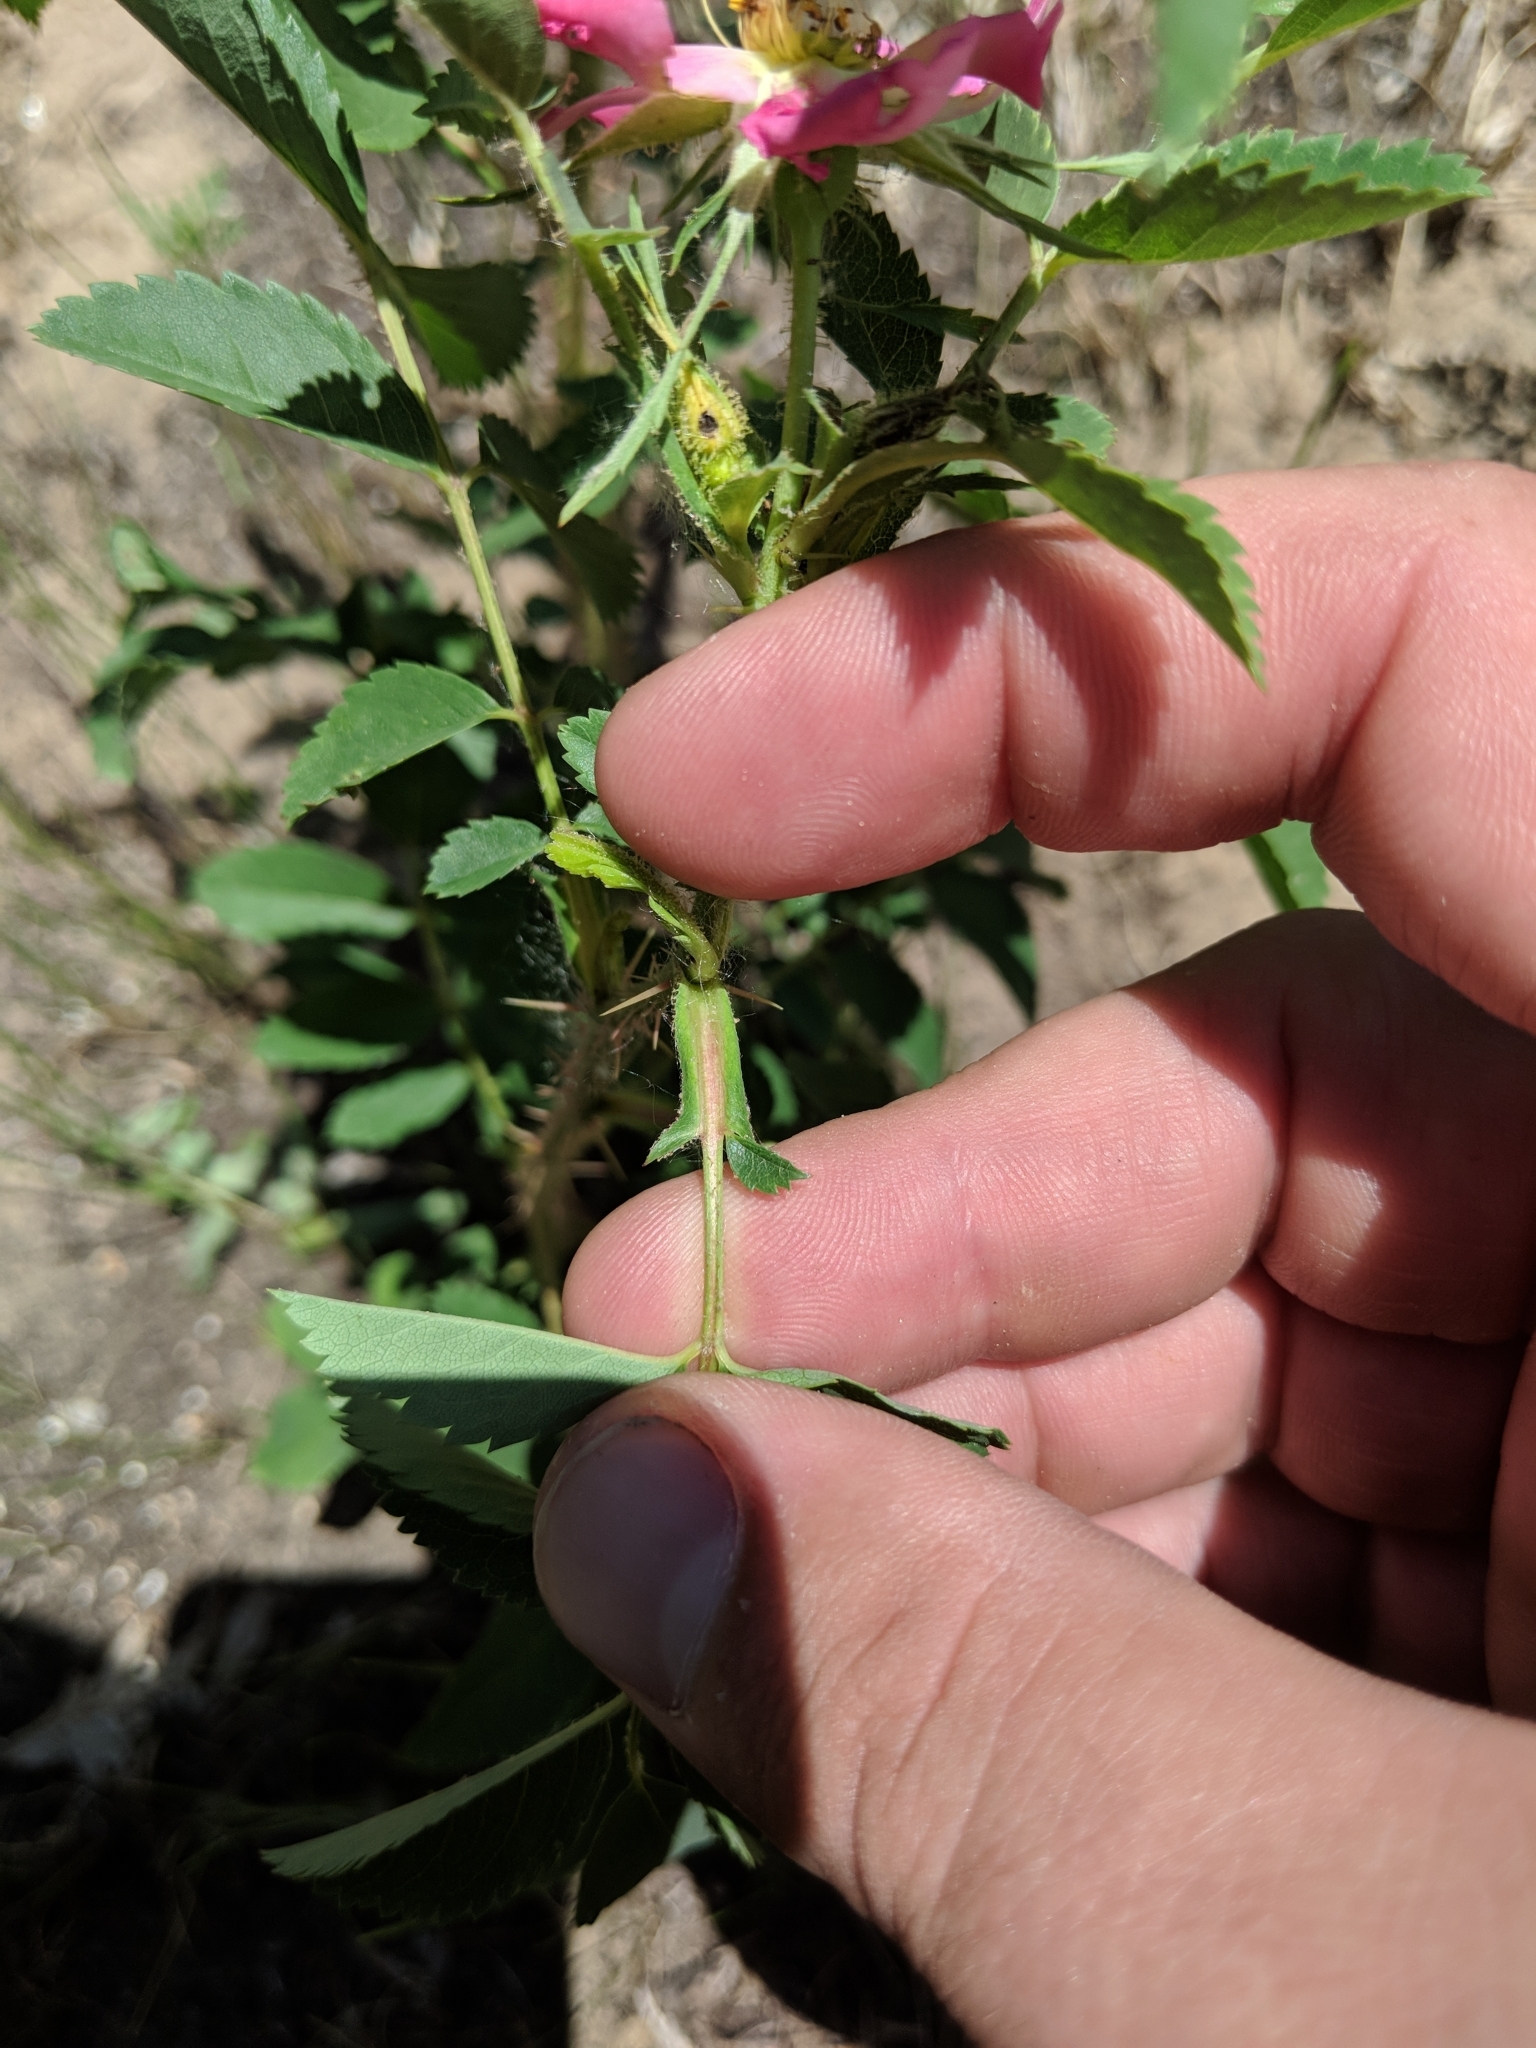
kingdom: Plantae
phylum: Tracheophyta
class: Magnoliopsida
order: Rosales
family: Rosaceae
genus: Rosa
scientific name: Rosa carolina
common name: Pasture rose
